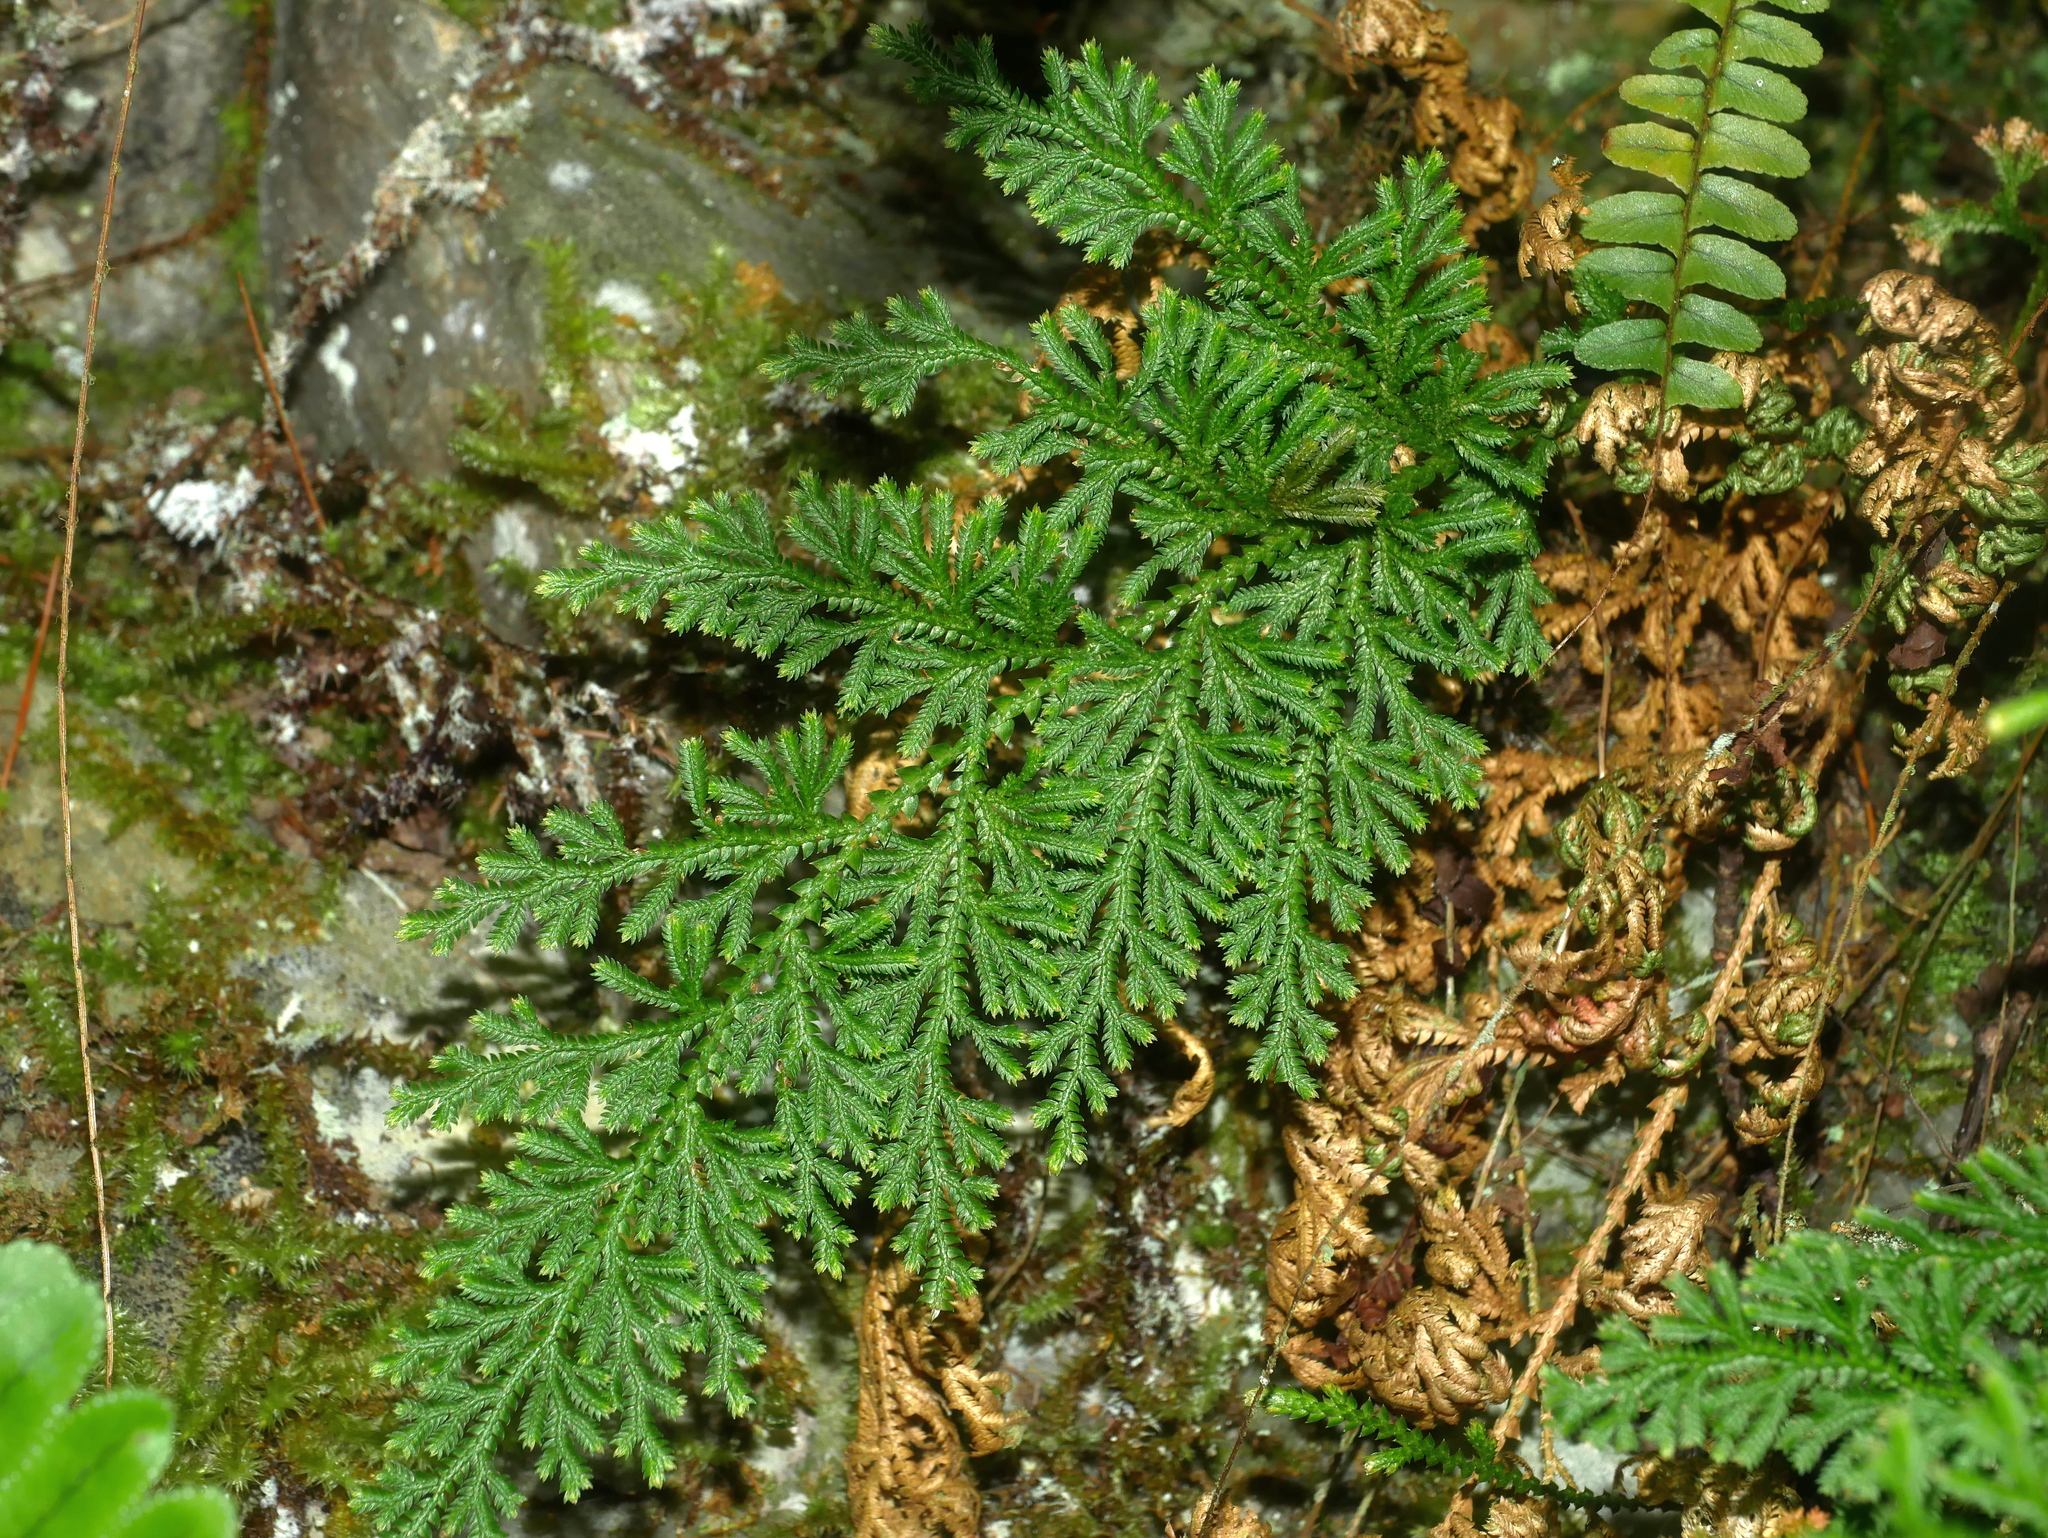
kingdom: Plantae
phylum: Tracheophyta
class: Lycopodiopsida
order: Selaginellales
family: Selaginellaceae
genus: Selaginella
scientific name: Selaginella involvens
